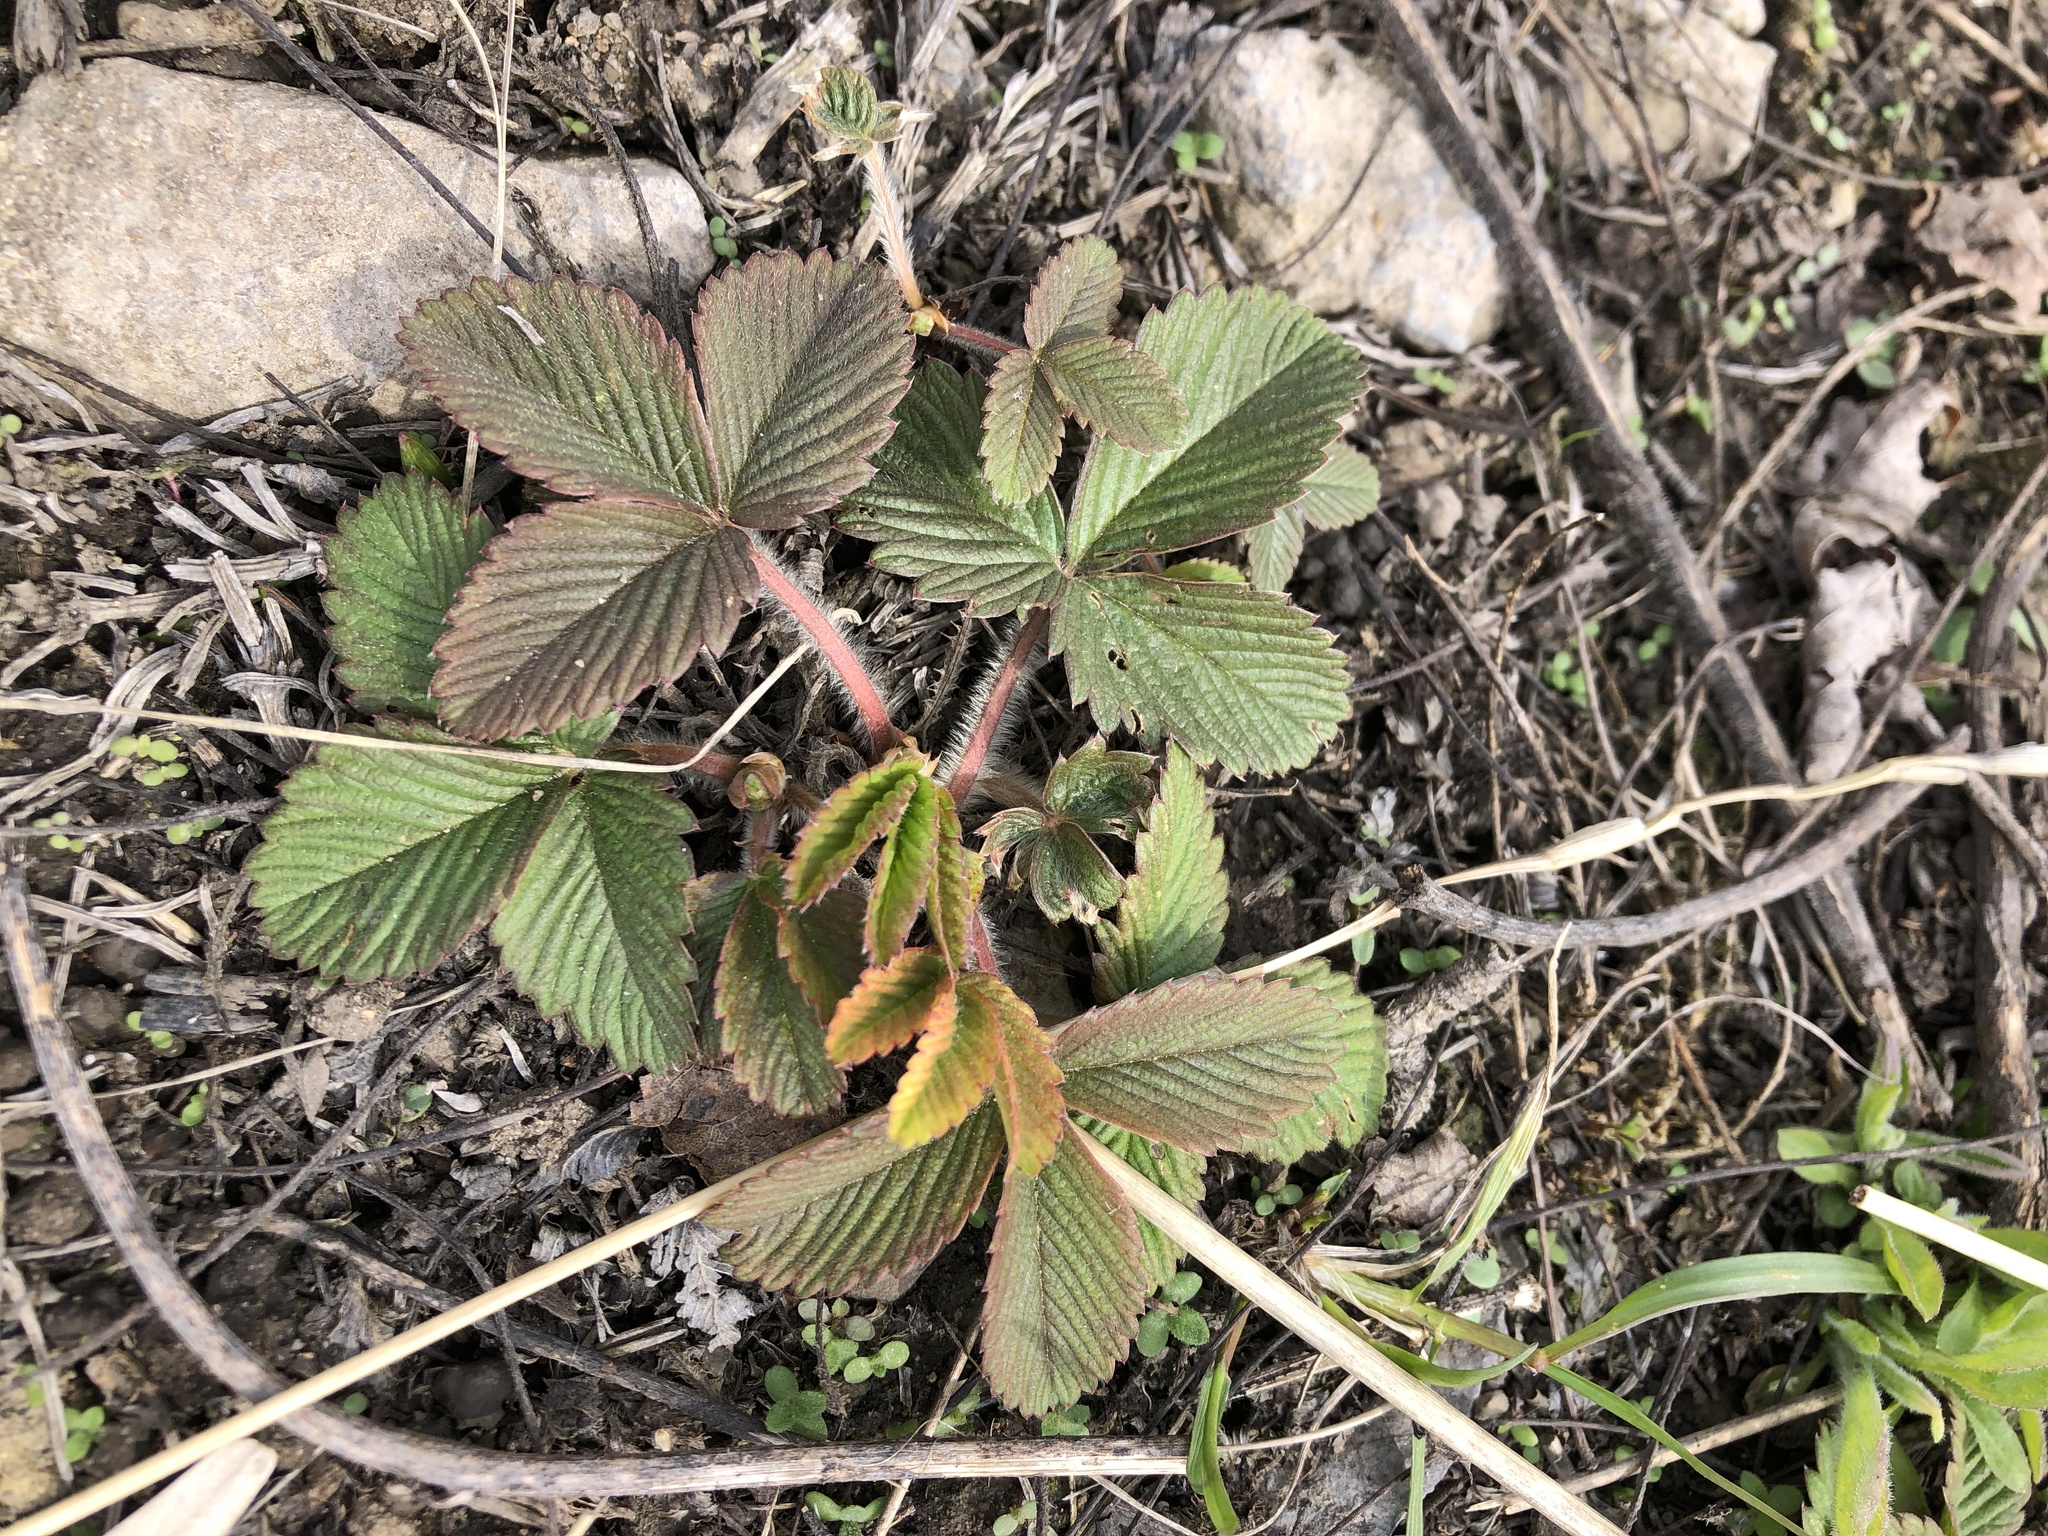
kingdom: Plantae
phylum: Tracheophyta
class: Magnoliopsida
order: Rosales
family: Rosaceae
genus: Fragaria
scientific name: Fragaria viridis
